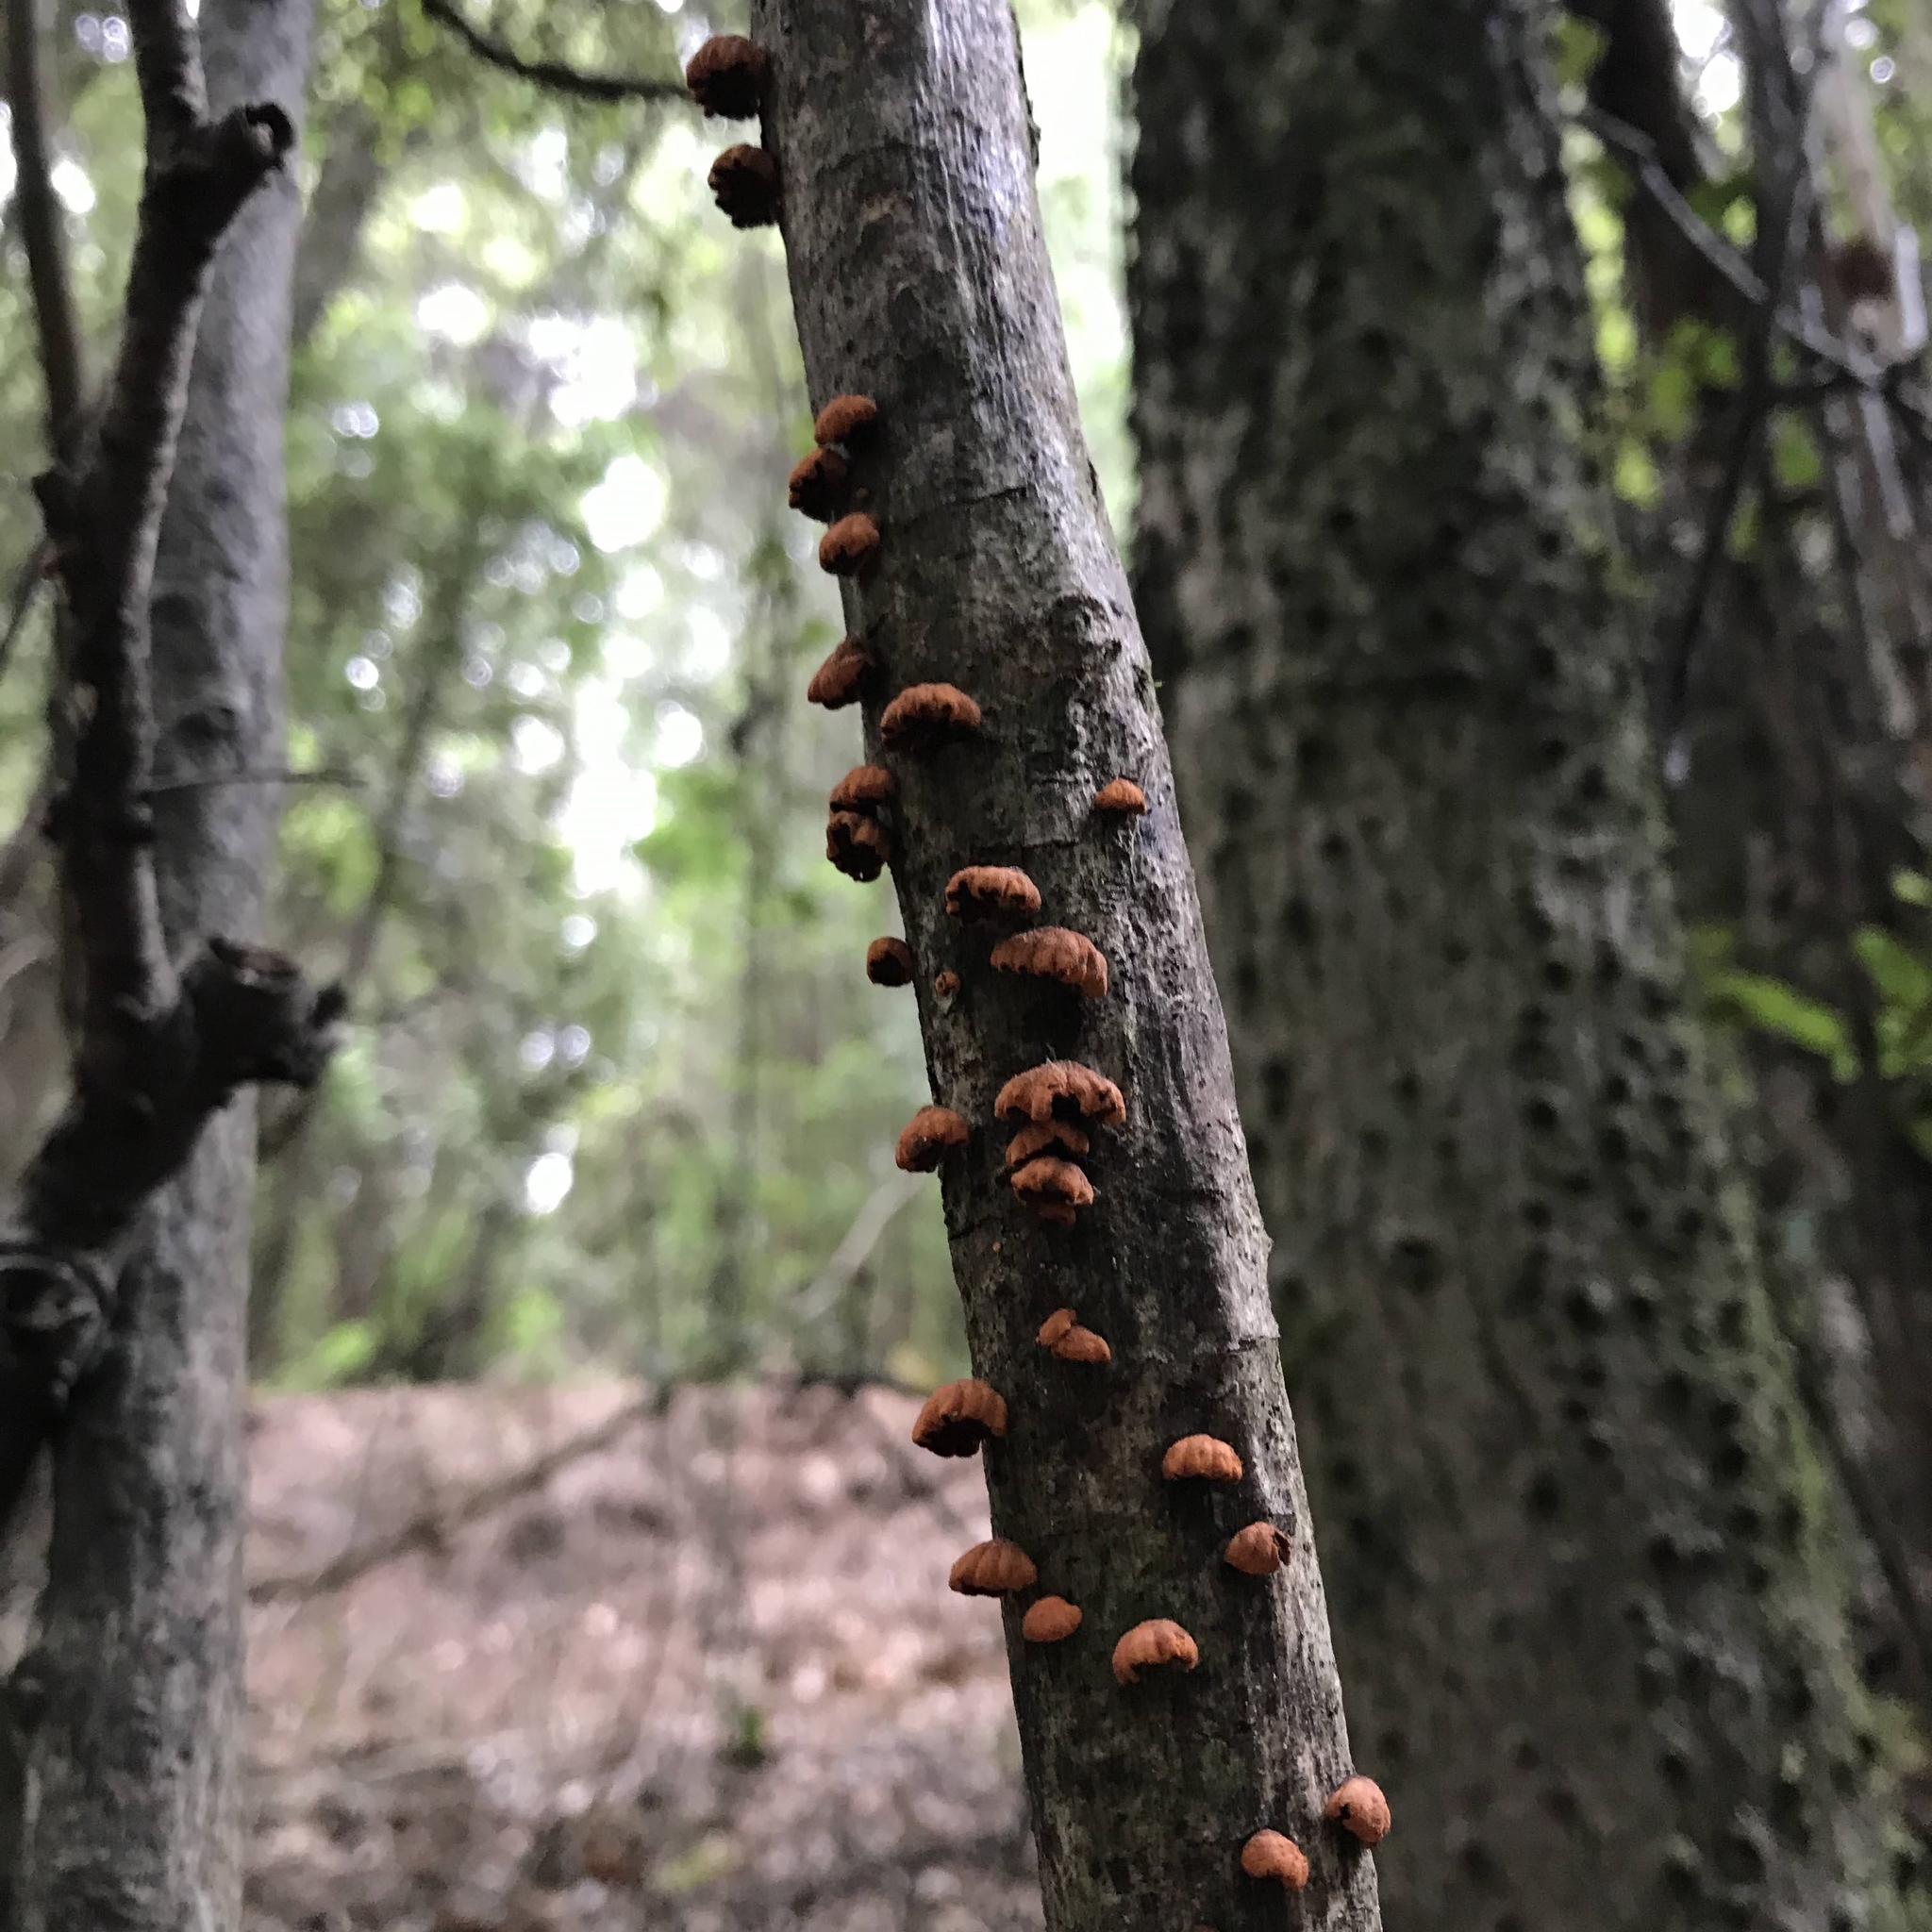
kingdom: Fungi
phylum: Basidiomycota
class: Agaricomycetes
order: Agaricales
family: Omphalotaceae
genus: Anthracophyllum
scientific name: Anthracophyllum discolor
